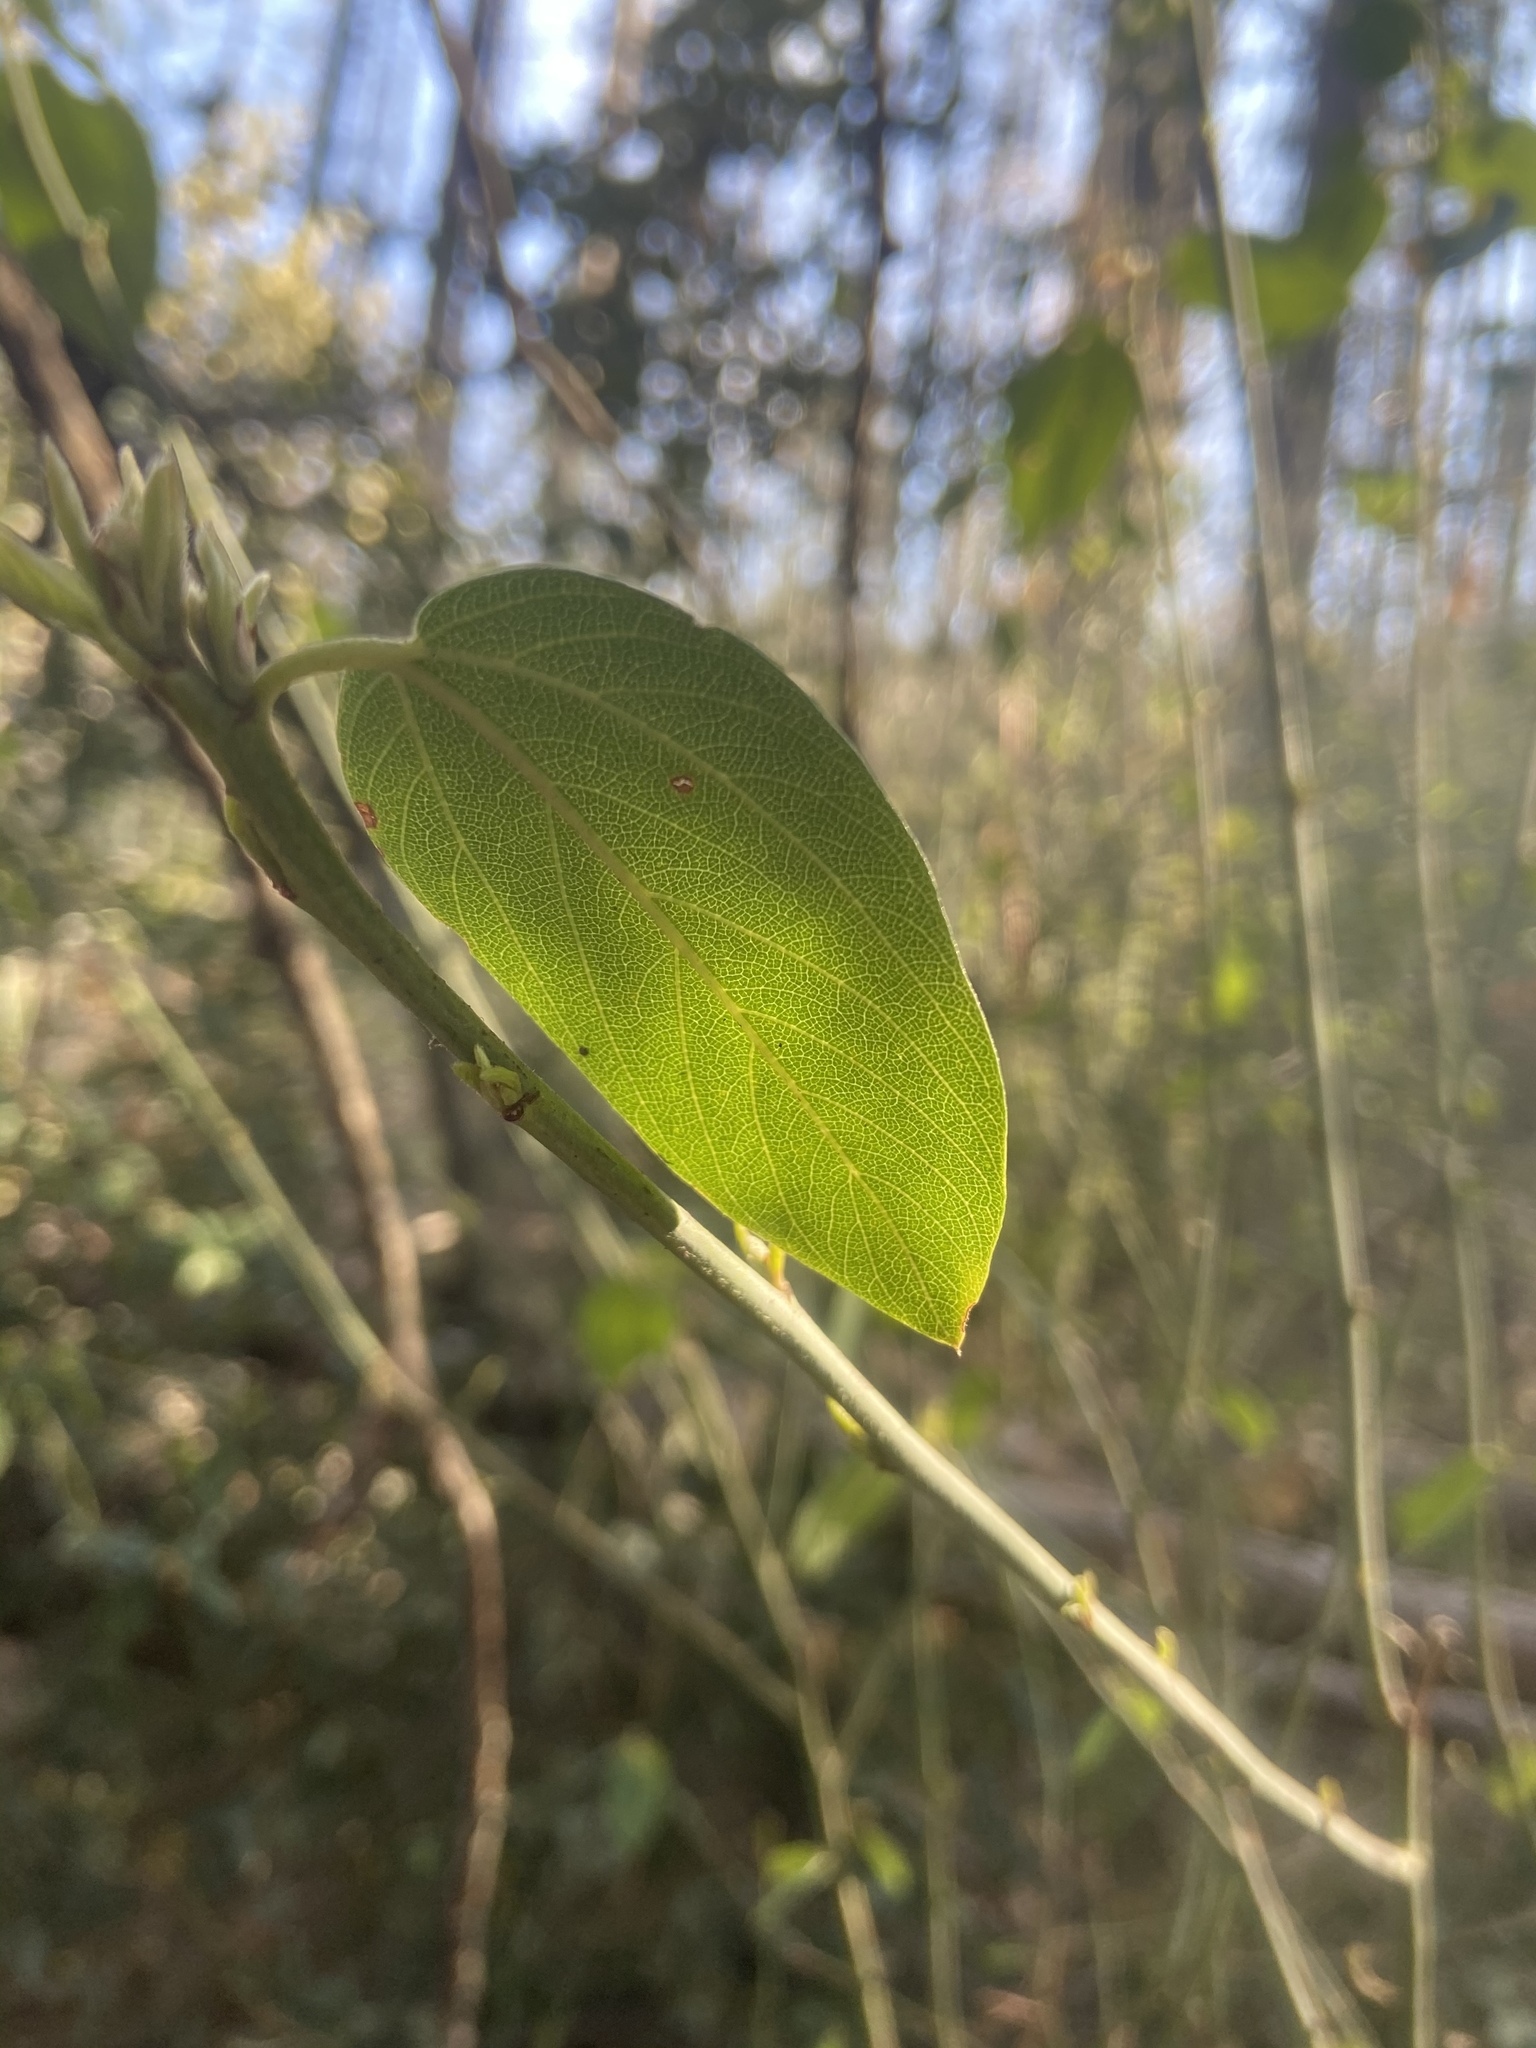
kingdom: Plantae
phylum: Tracheophyta
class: Magnoliopsida
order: Rosales
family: Rhamnaceae
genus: Ceanothus
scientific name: Ceanothus integerrimus
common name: Deerbrush ceanothus
